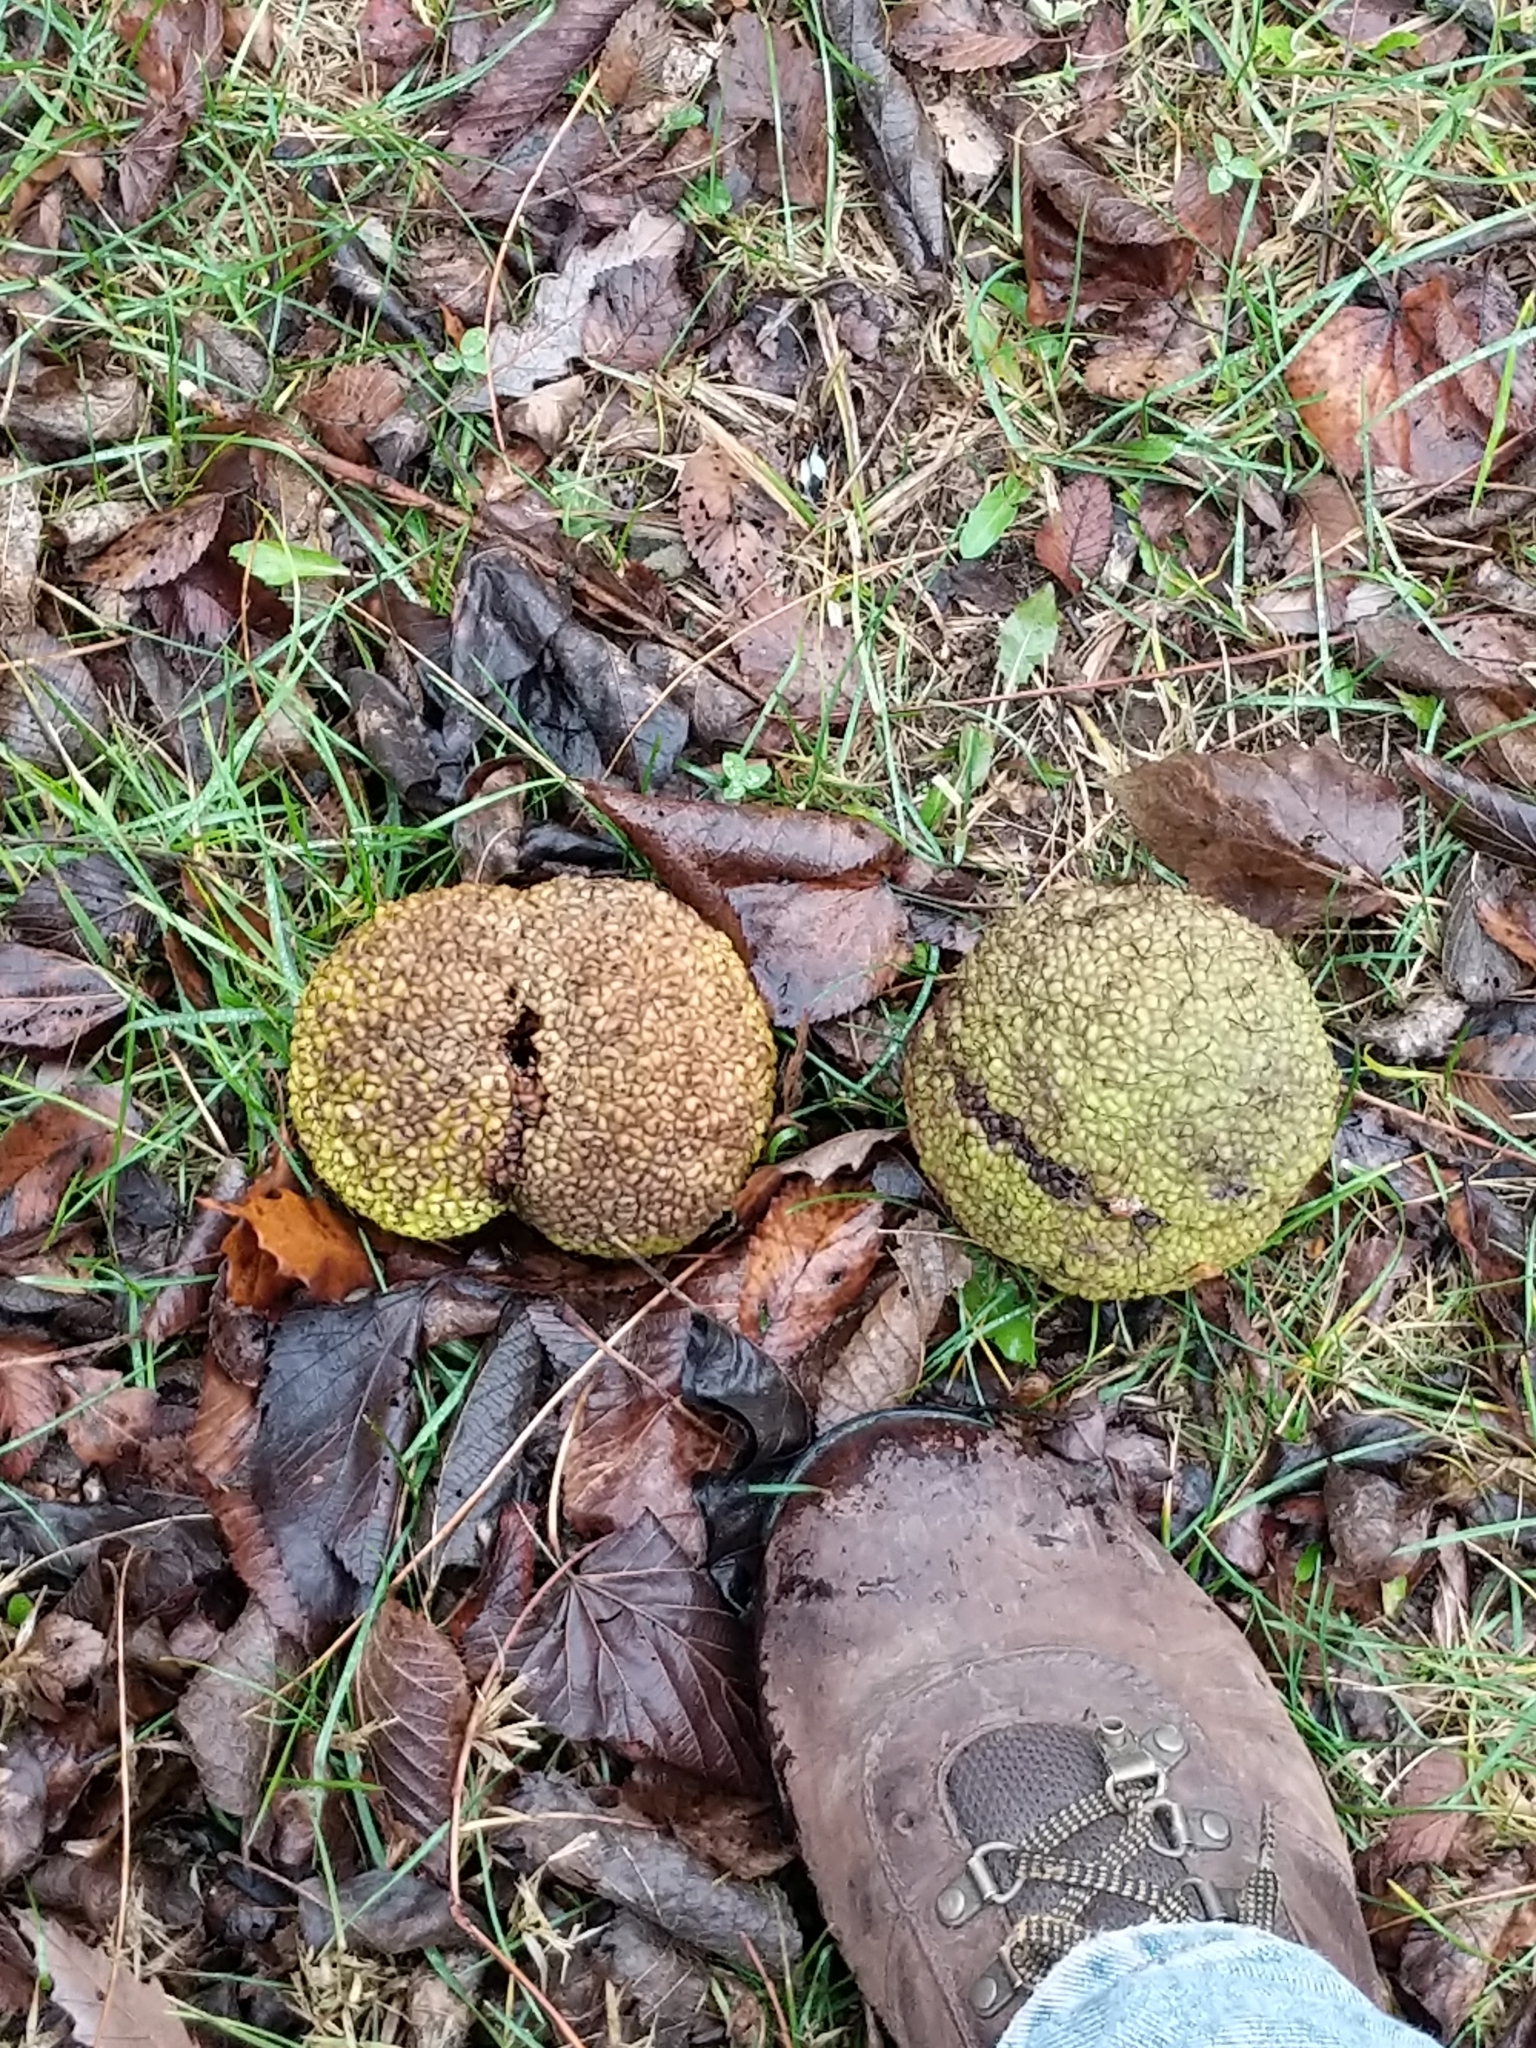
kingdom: Plantae
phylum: Tracheophyta
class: Magnoliopsida
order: Rosales
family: Moraceae
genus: Maclura
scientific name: Maclura pomifera
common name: Osage-orange
